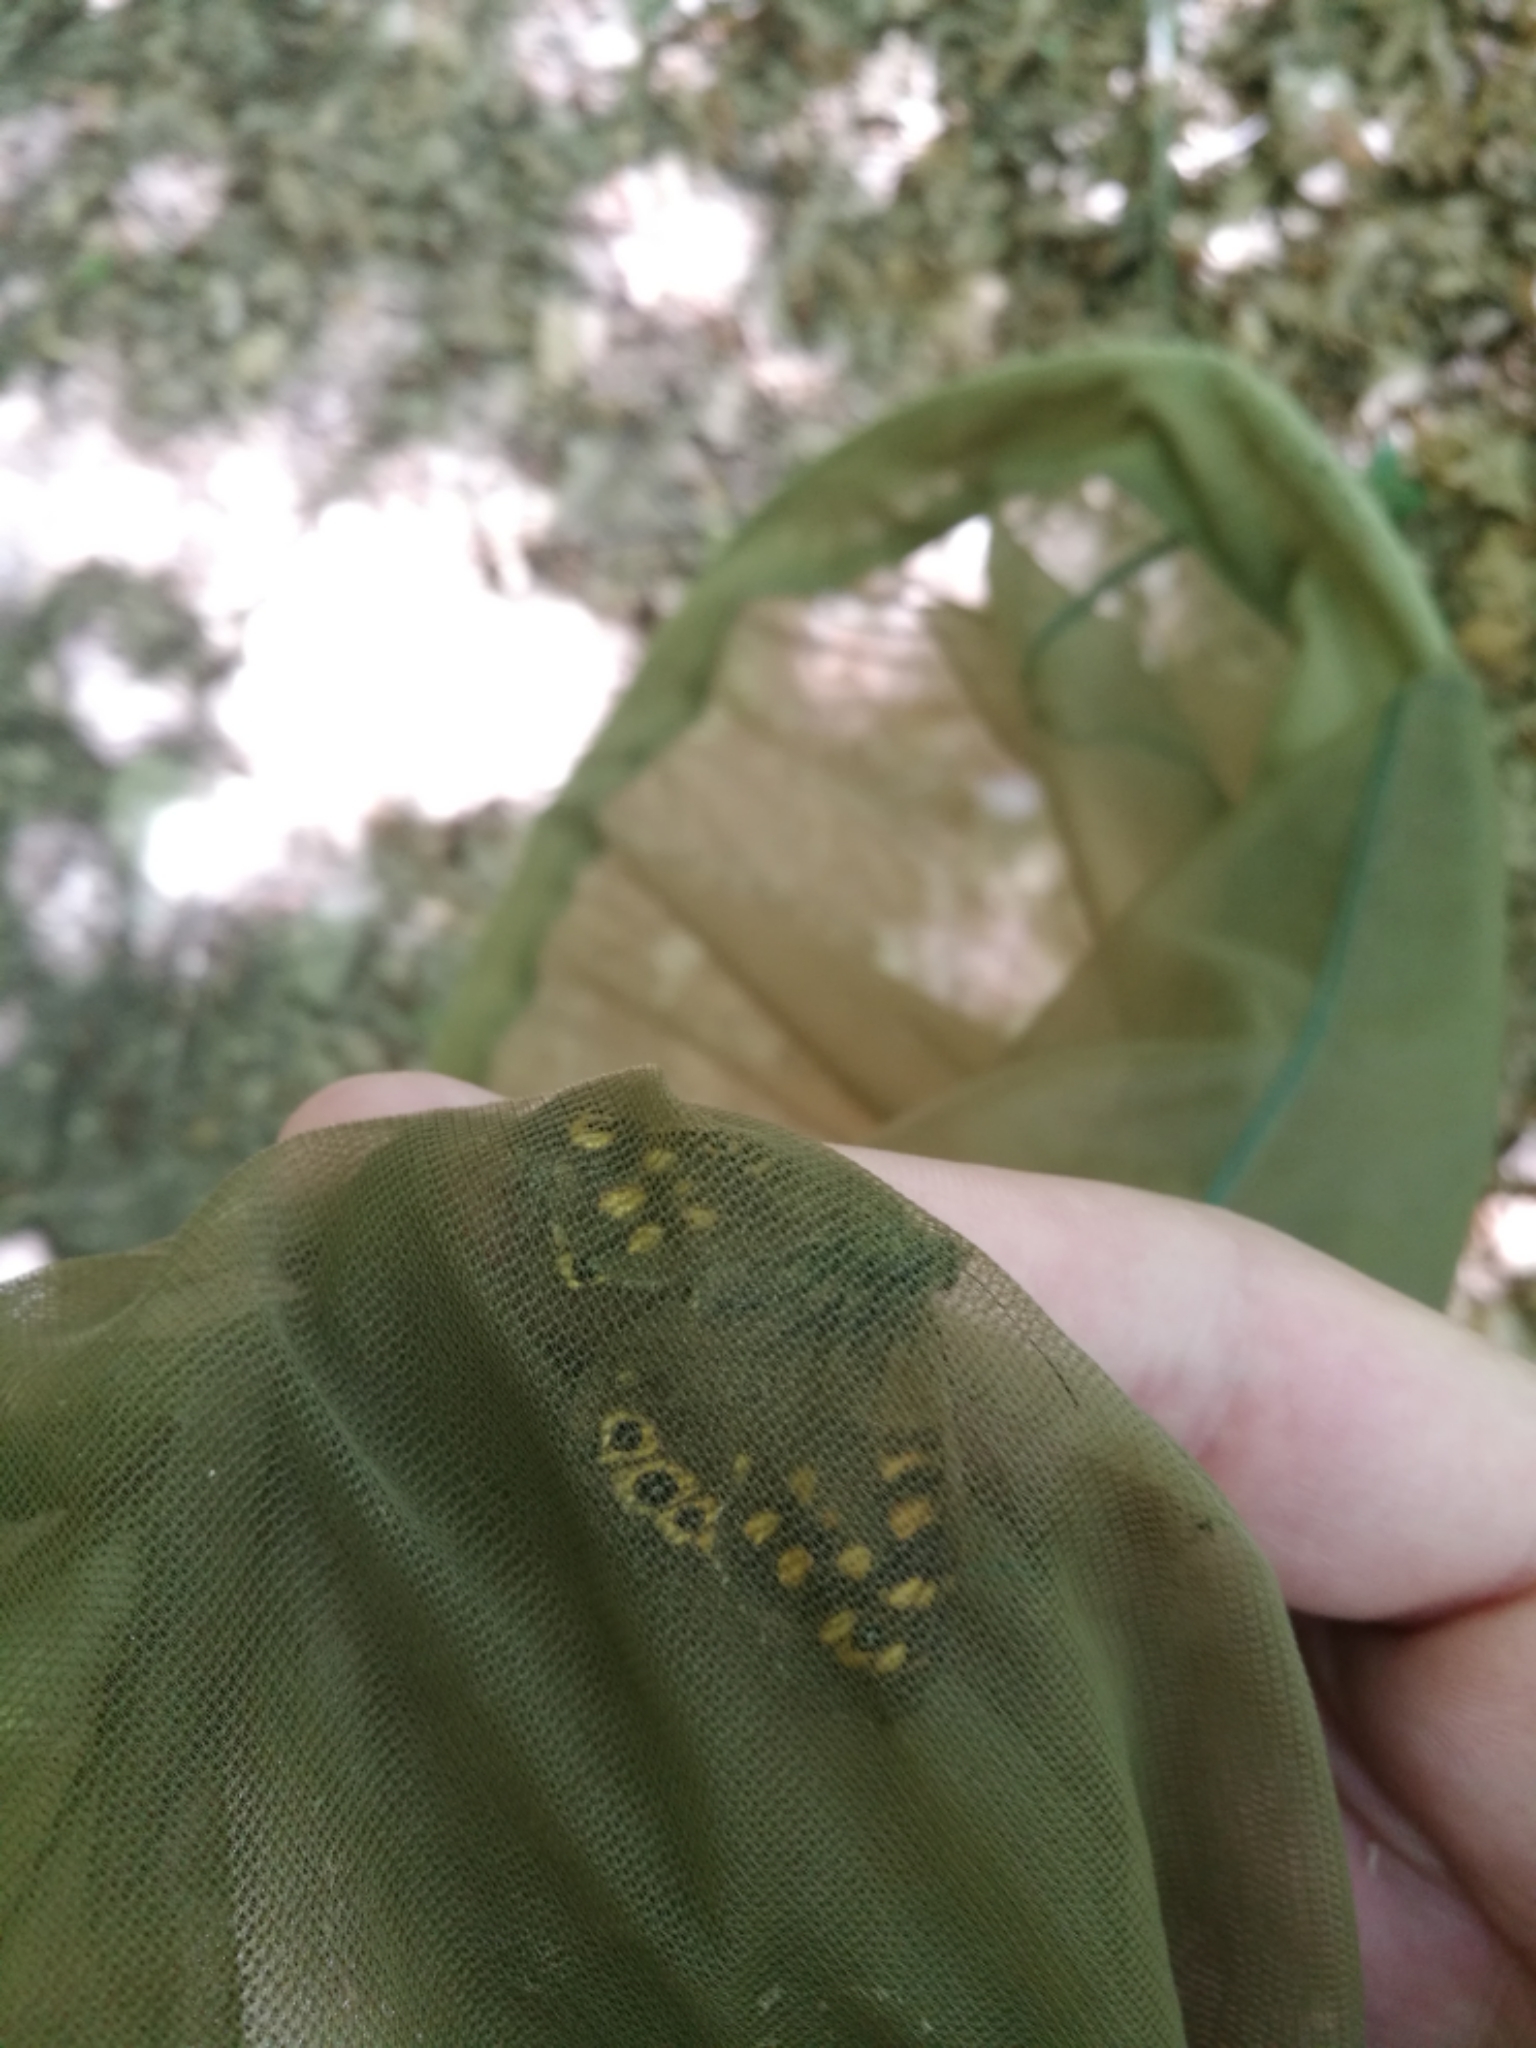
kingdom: Animalia
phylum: Arthropoda
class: Insecta
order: Lepidoptera
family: Nymphalidae
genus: Pararge
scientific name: Pararge aegeria
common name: Speckled wood
